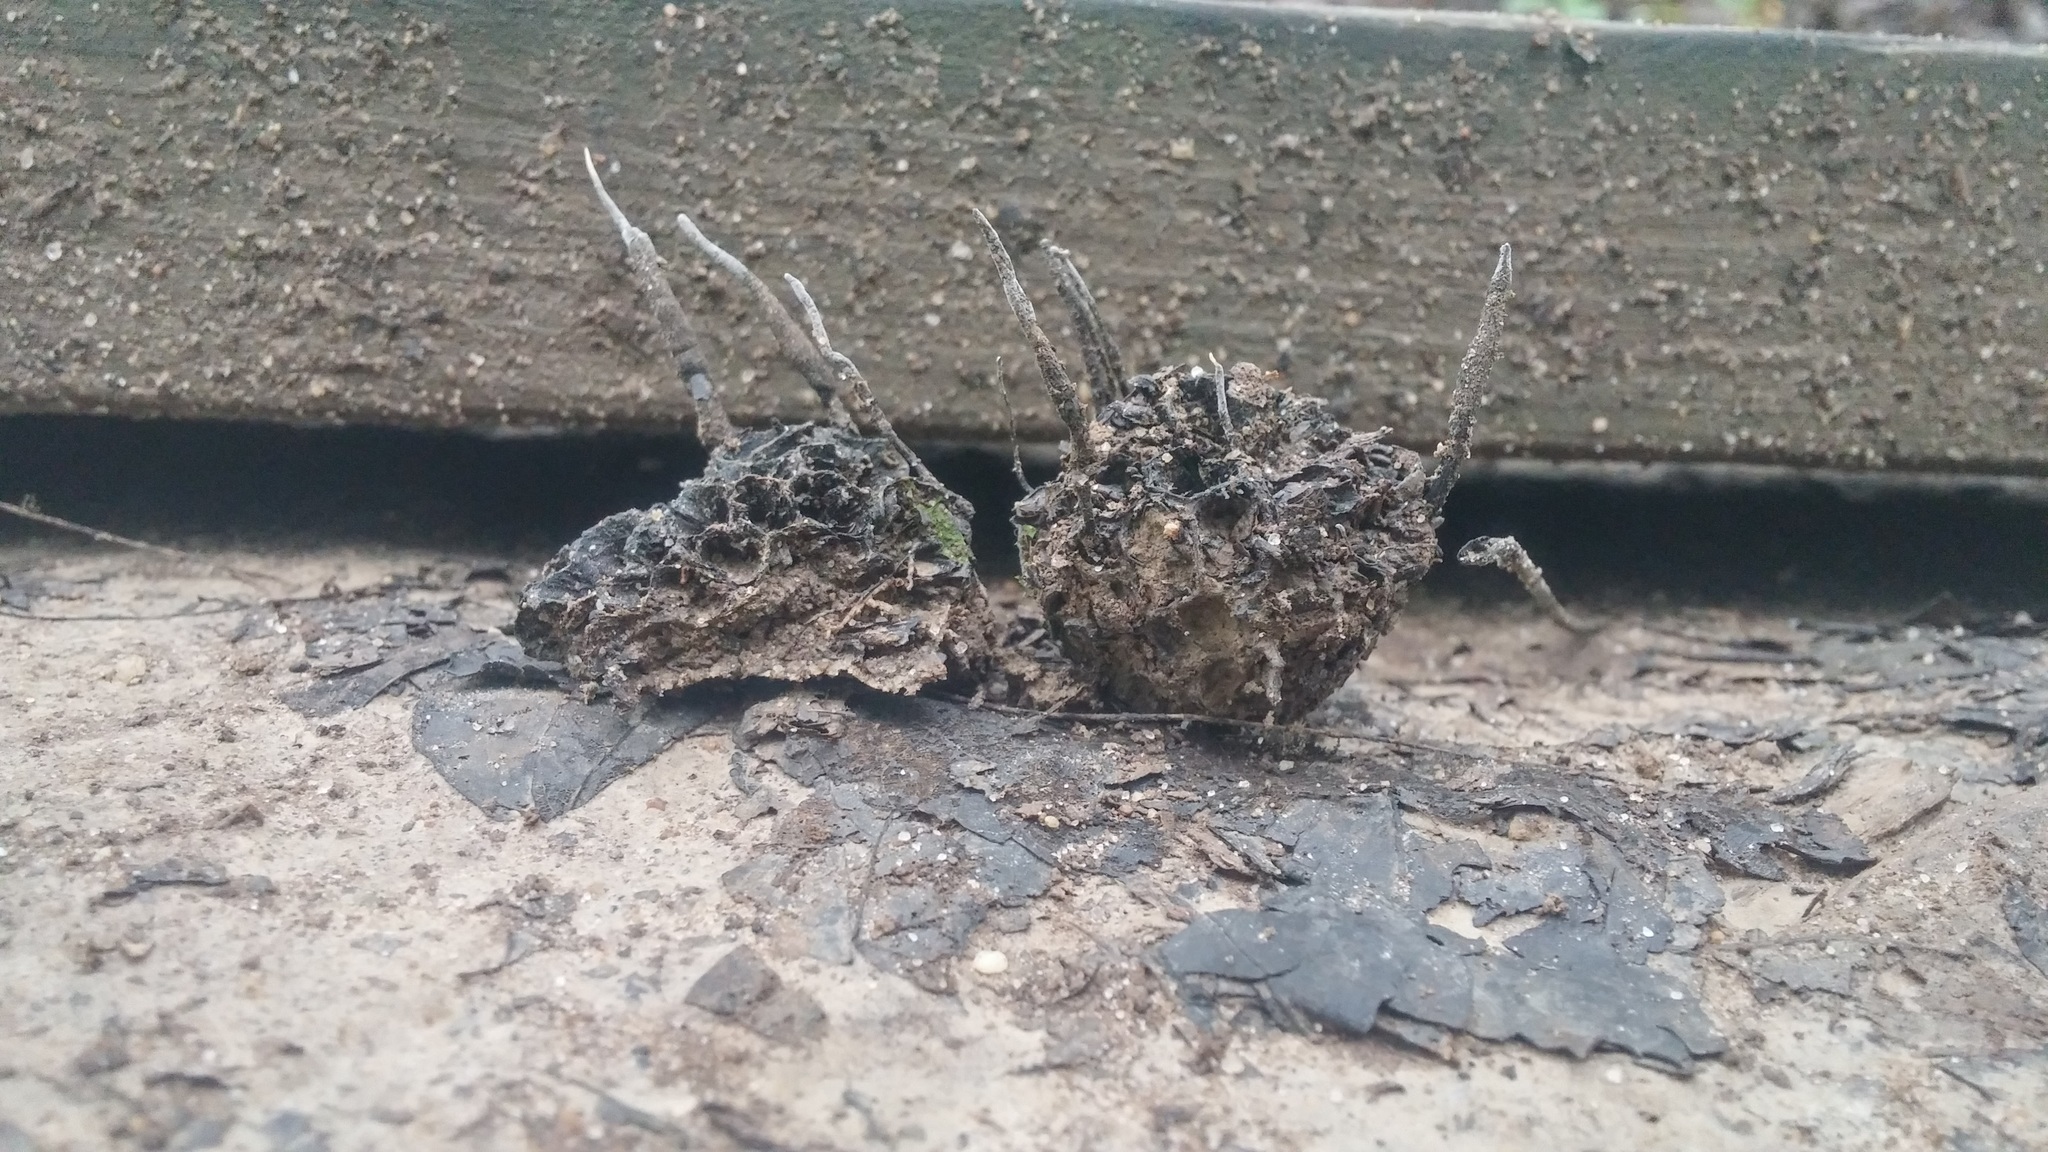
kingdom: Fungi
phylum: Ascomycota
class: Sordariomycetes
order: Xylariales
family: Xylariaceae
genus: Xylaria
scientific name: Xylaria liquidambaris
